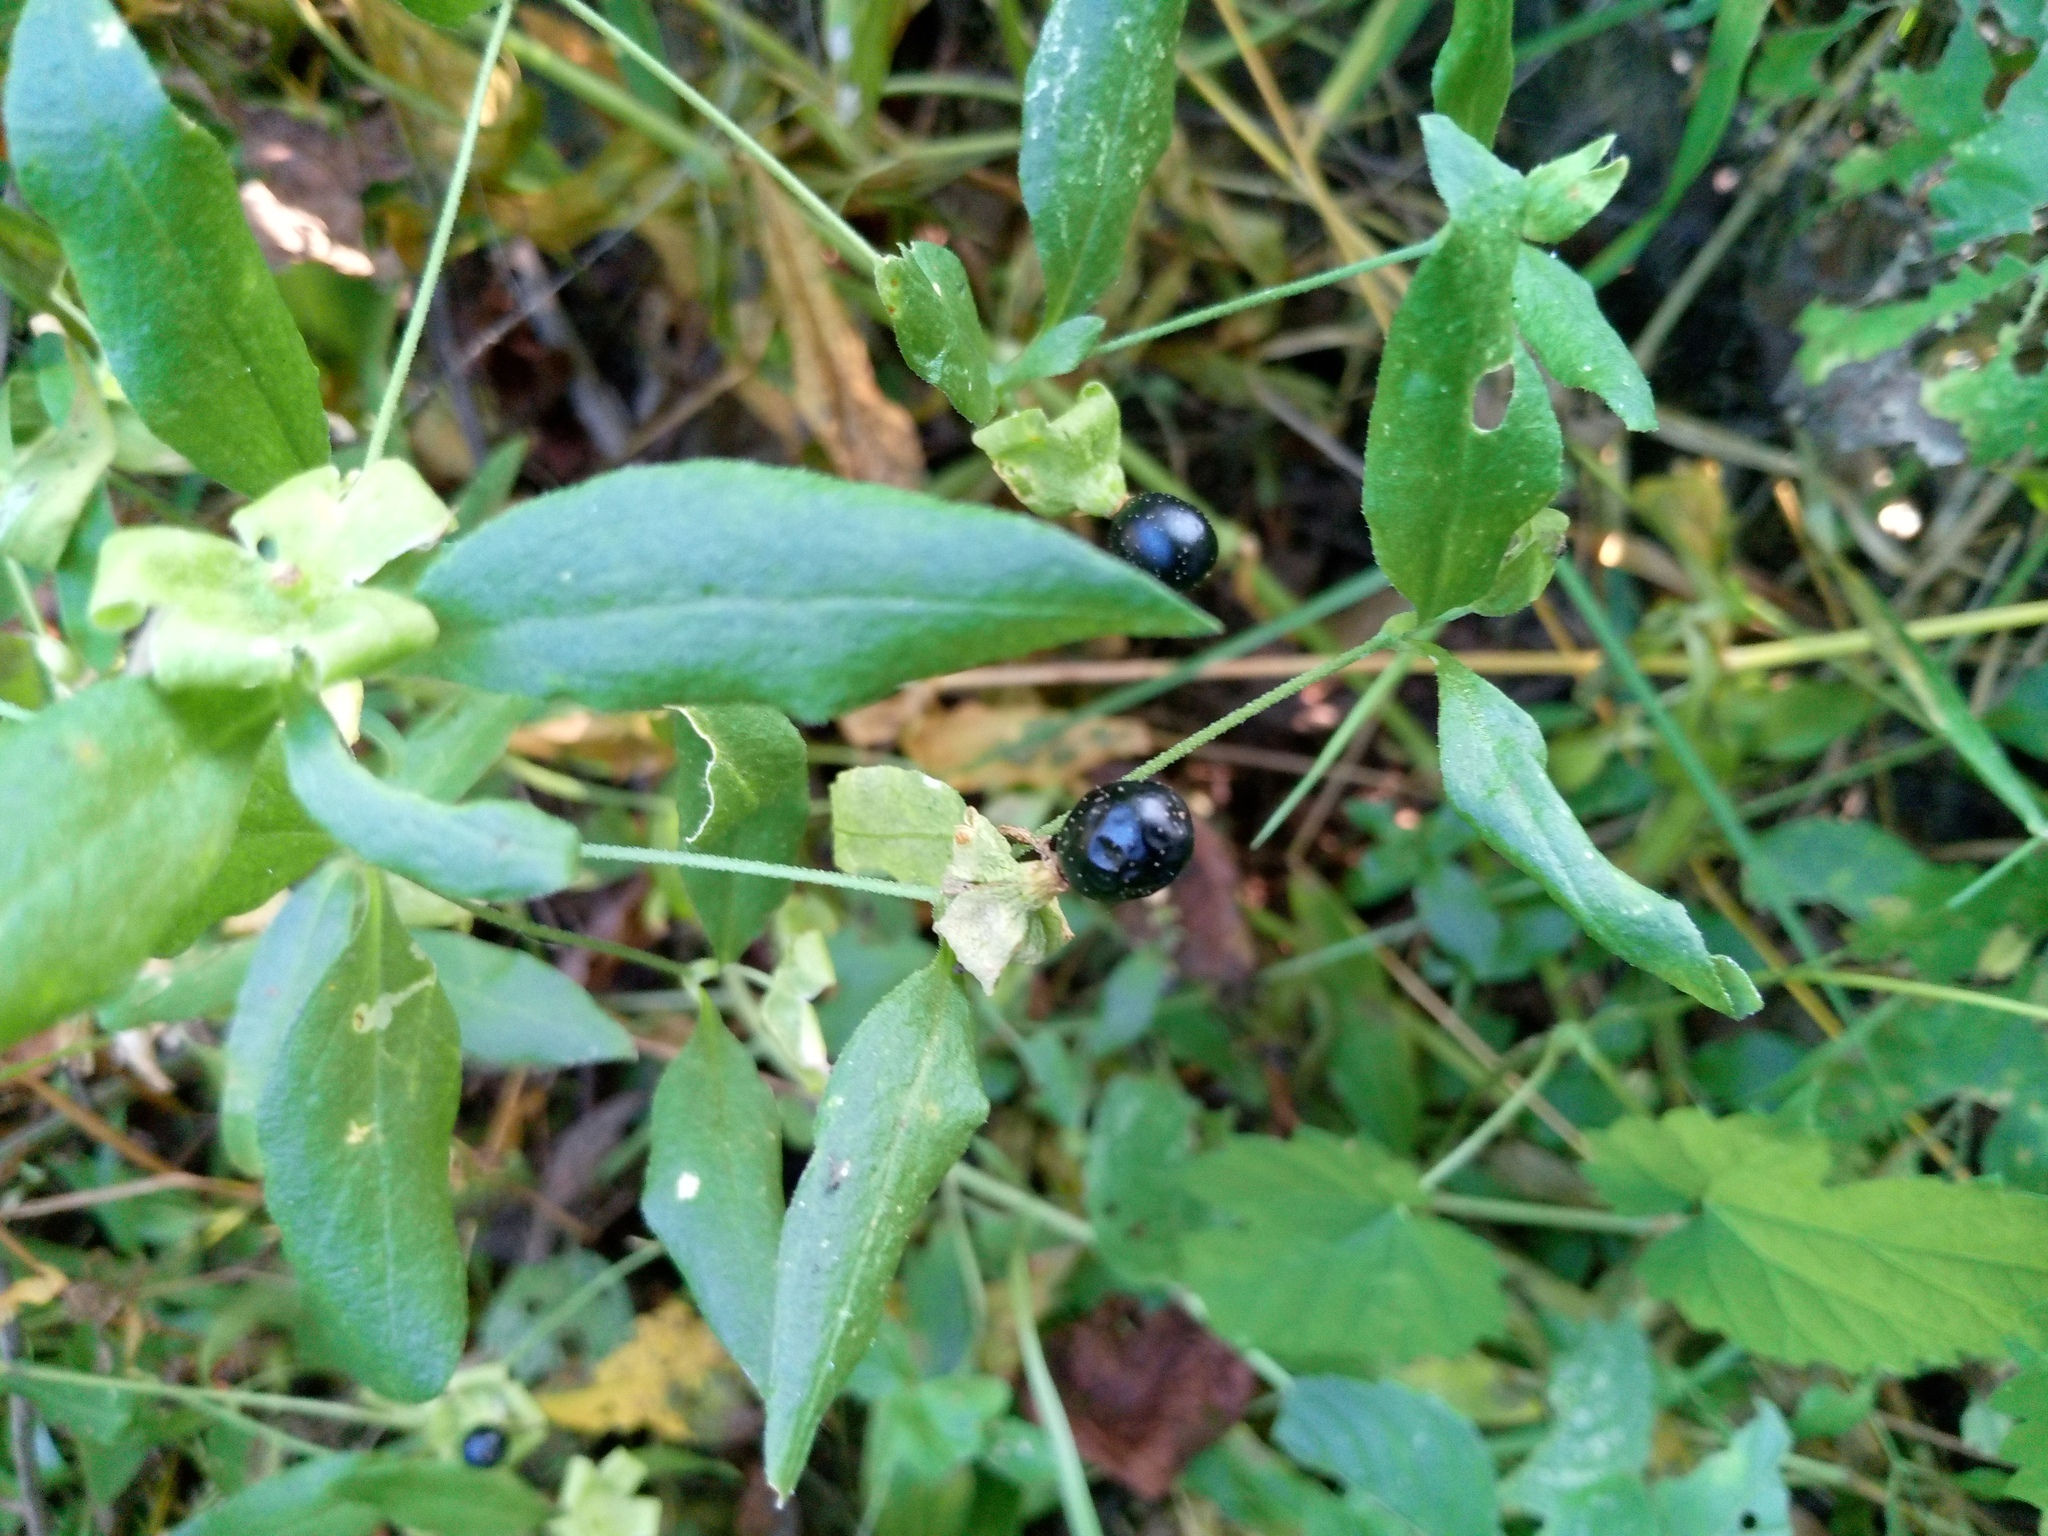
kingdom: Plantae
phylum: Tracheophyta
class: Magnoliopsida
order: Caryophyllales
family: Caryophyllaceae
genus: Silene
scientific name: Silene baccifera
